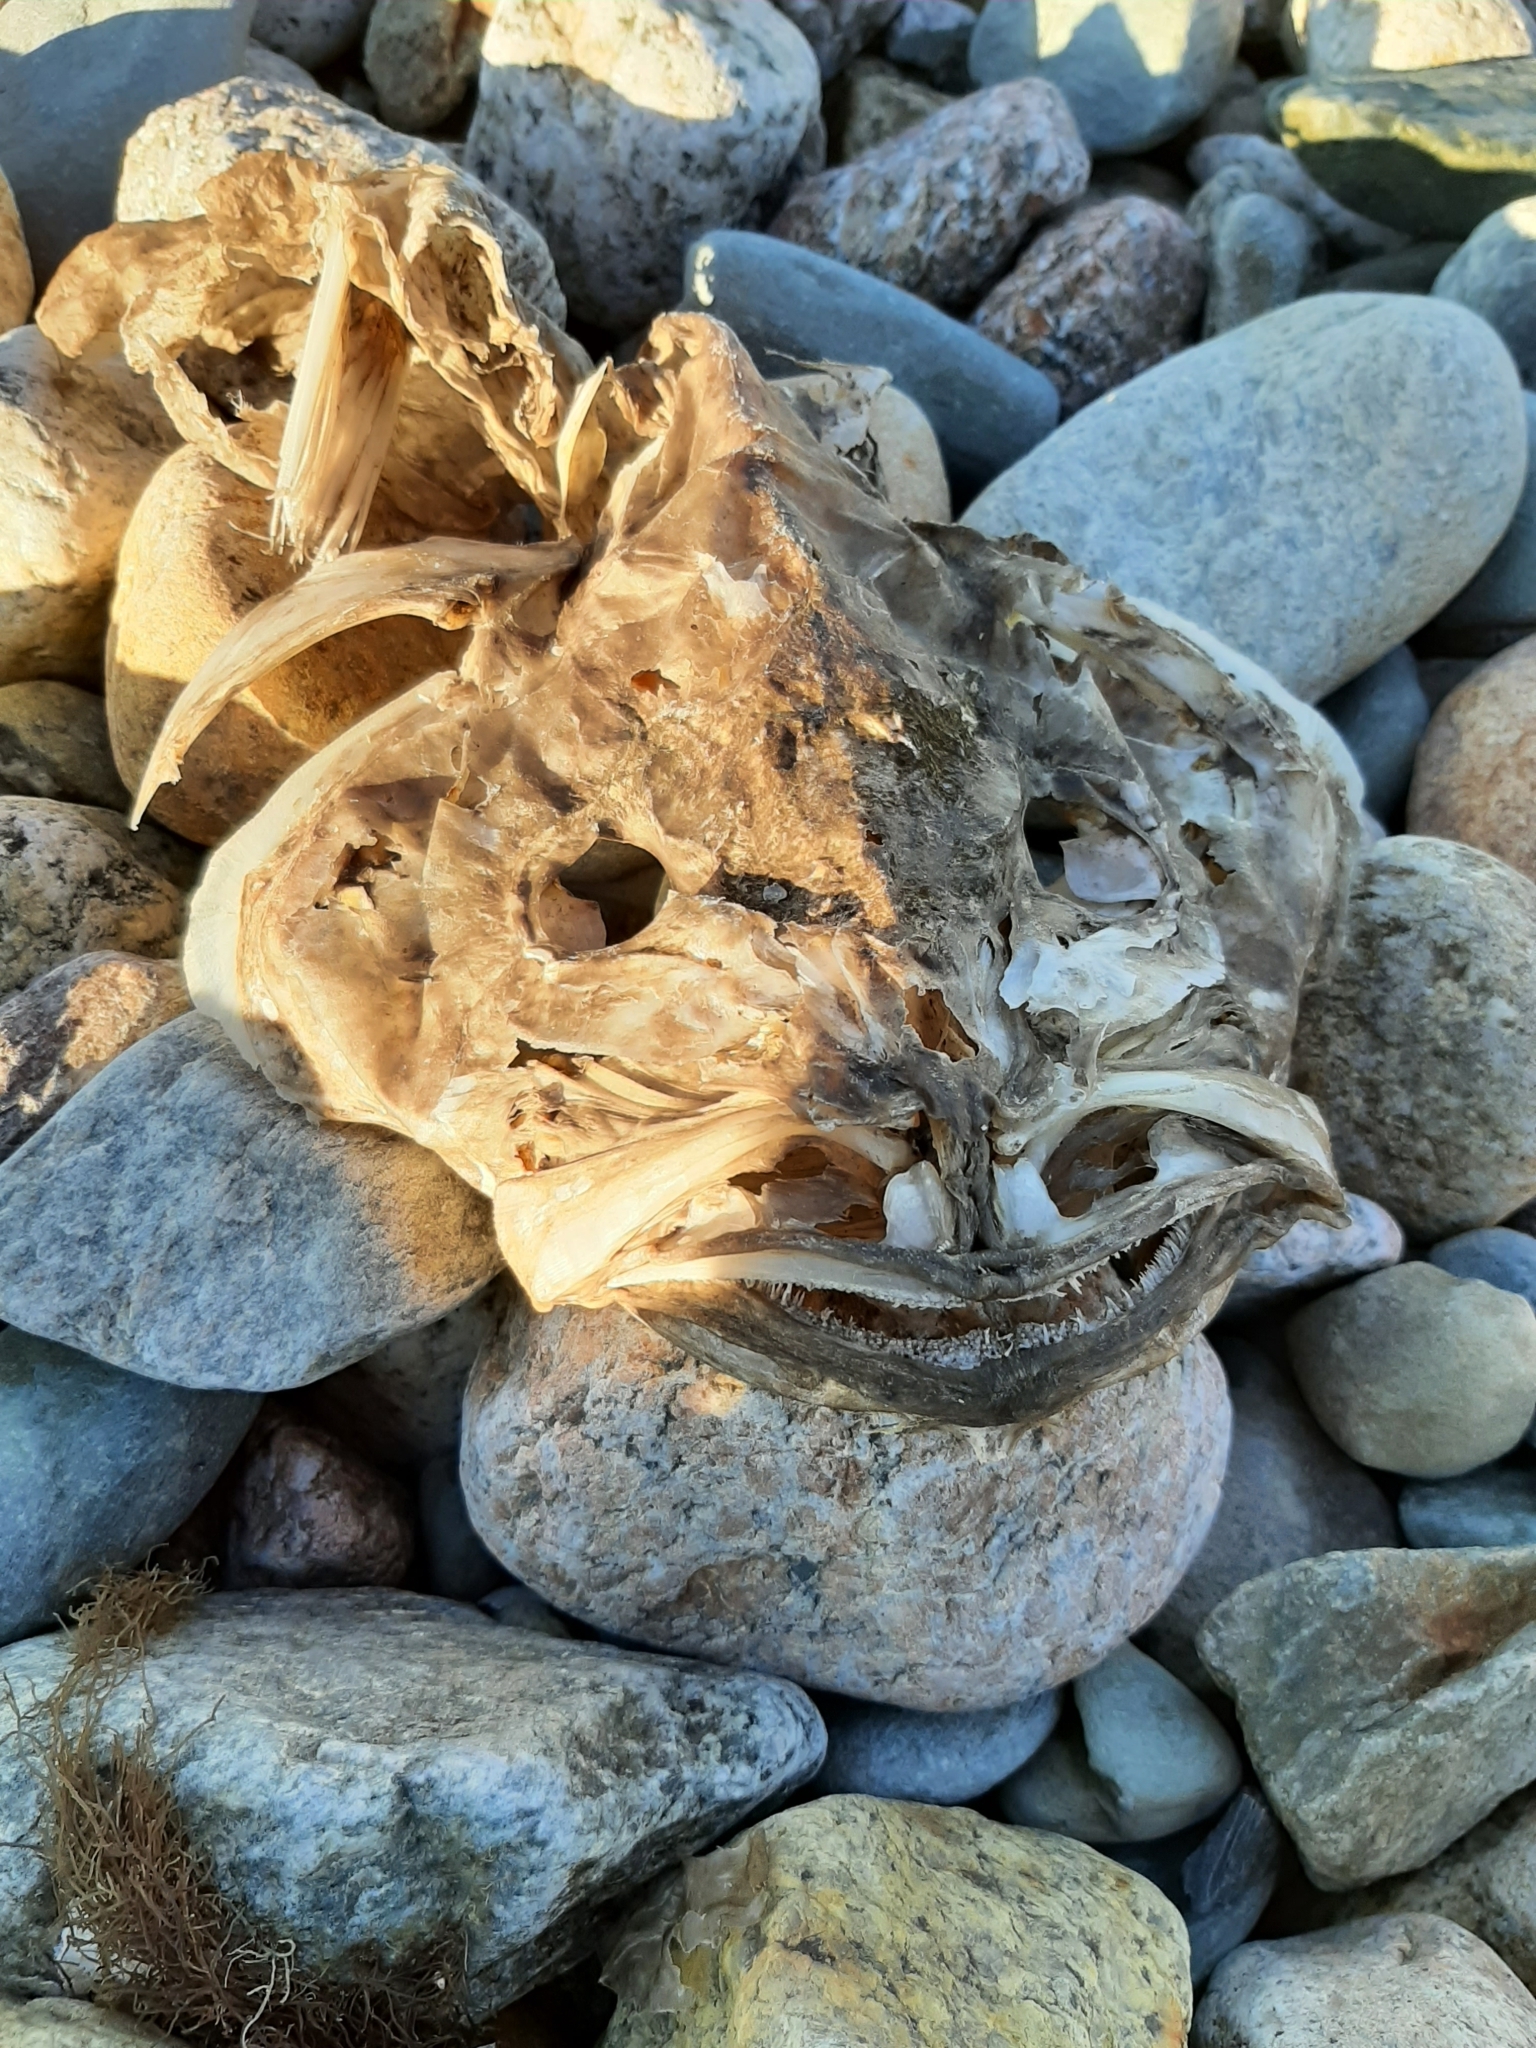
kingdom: Animalia
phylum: Chordata
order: Lophiiformes
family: Lophiidae
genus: Lophius
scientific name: Lophius americanus
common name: American angler
